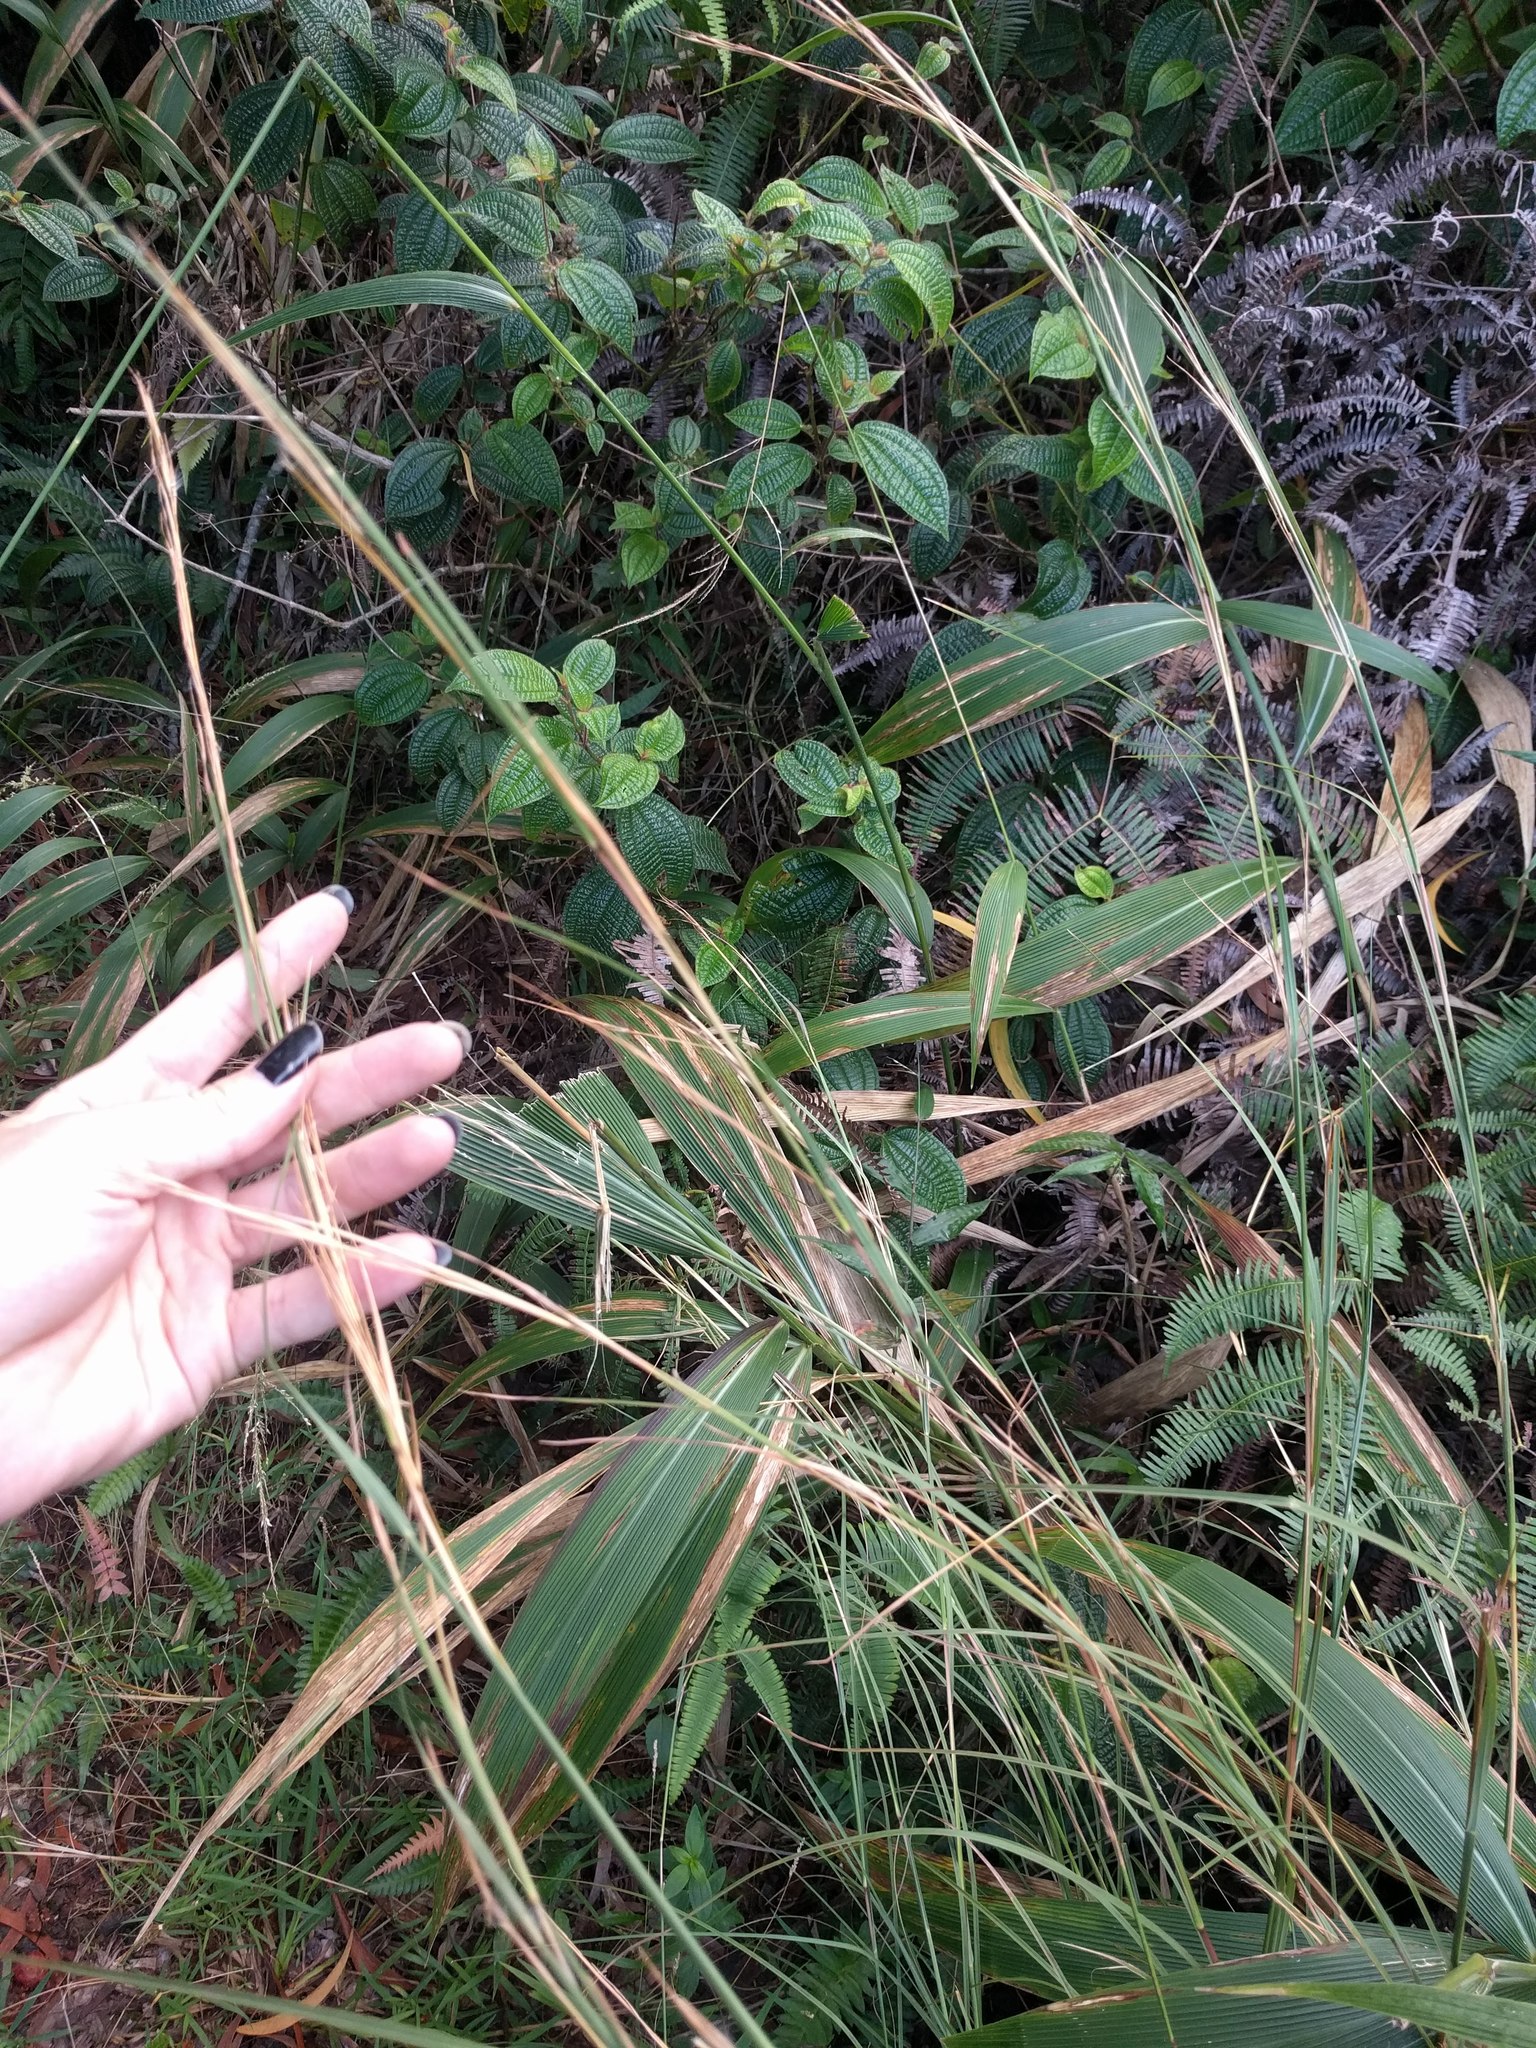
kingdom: Plantae
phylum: Tracheophyta
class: Liliopsida
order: Poales
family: Poaceae
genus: Setaria
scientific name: Setaria palmifolia
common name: Broadleaved bristlegrass
